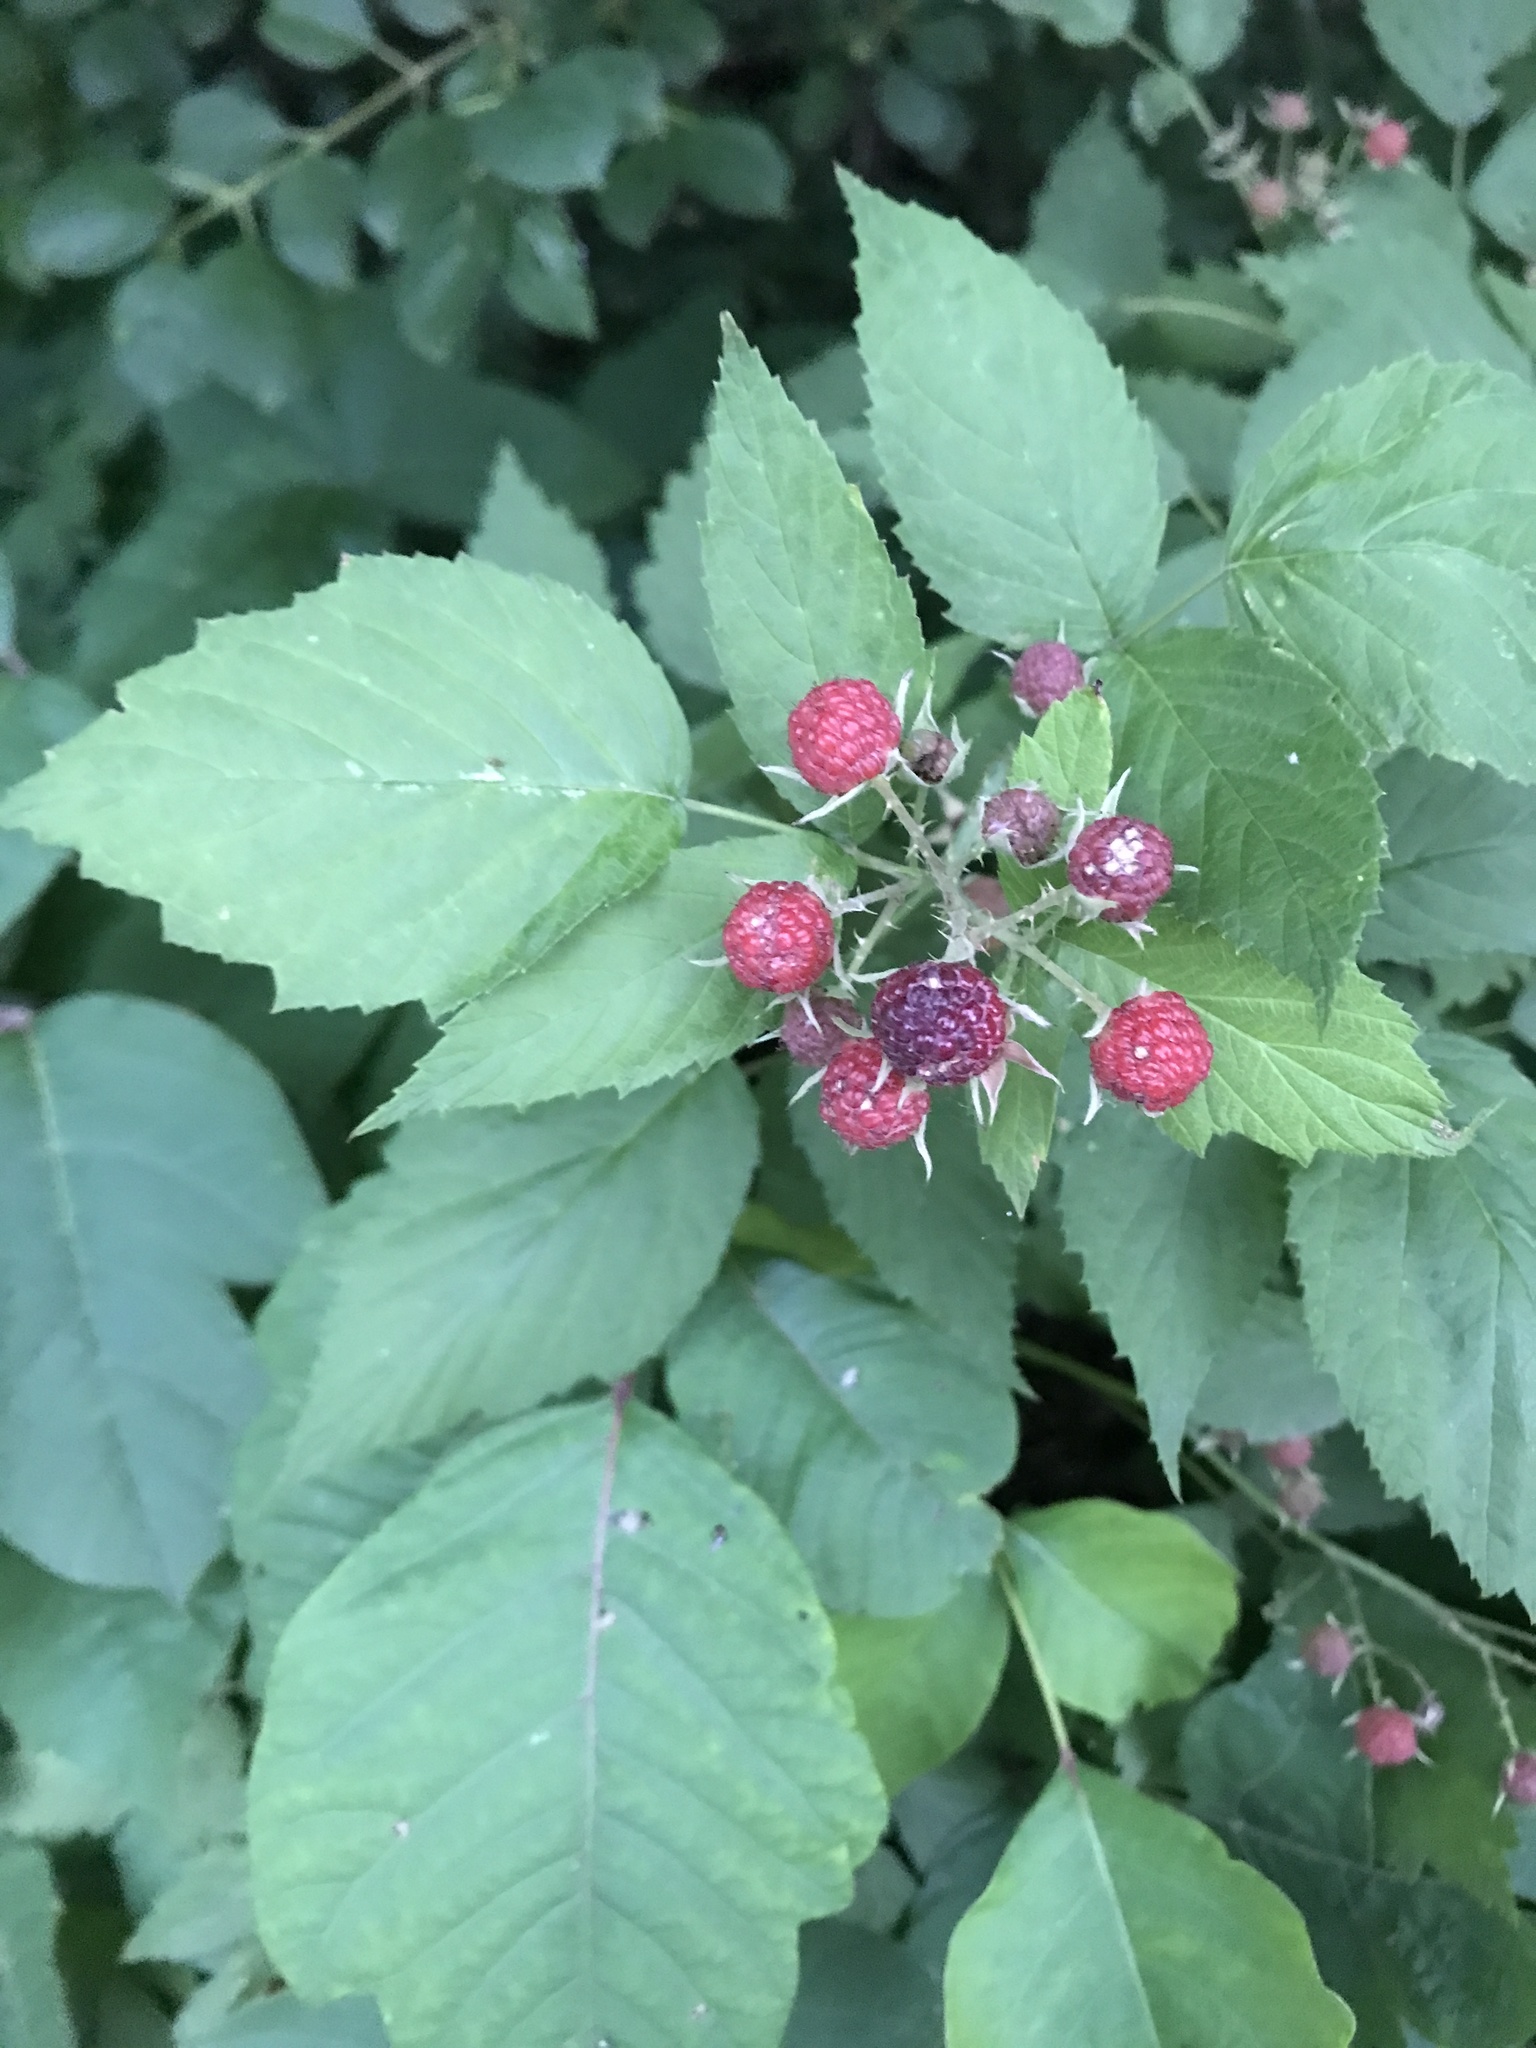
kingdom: Plantae
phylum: Tracheophyta
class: Magnoliopsida
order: Rosales
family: Rosaceae
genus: Rubus
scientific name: Rubus occidentalis
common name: Black raspberry
